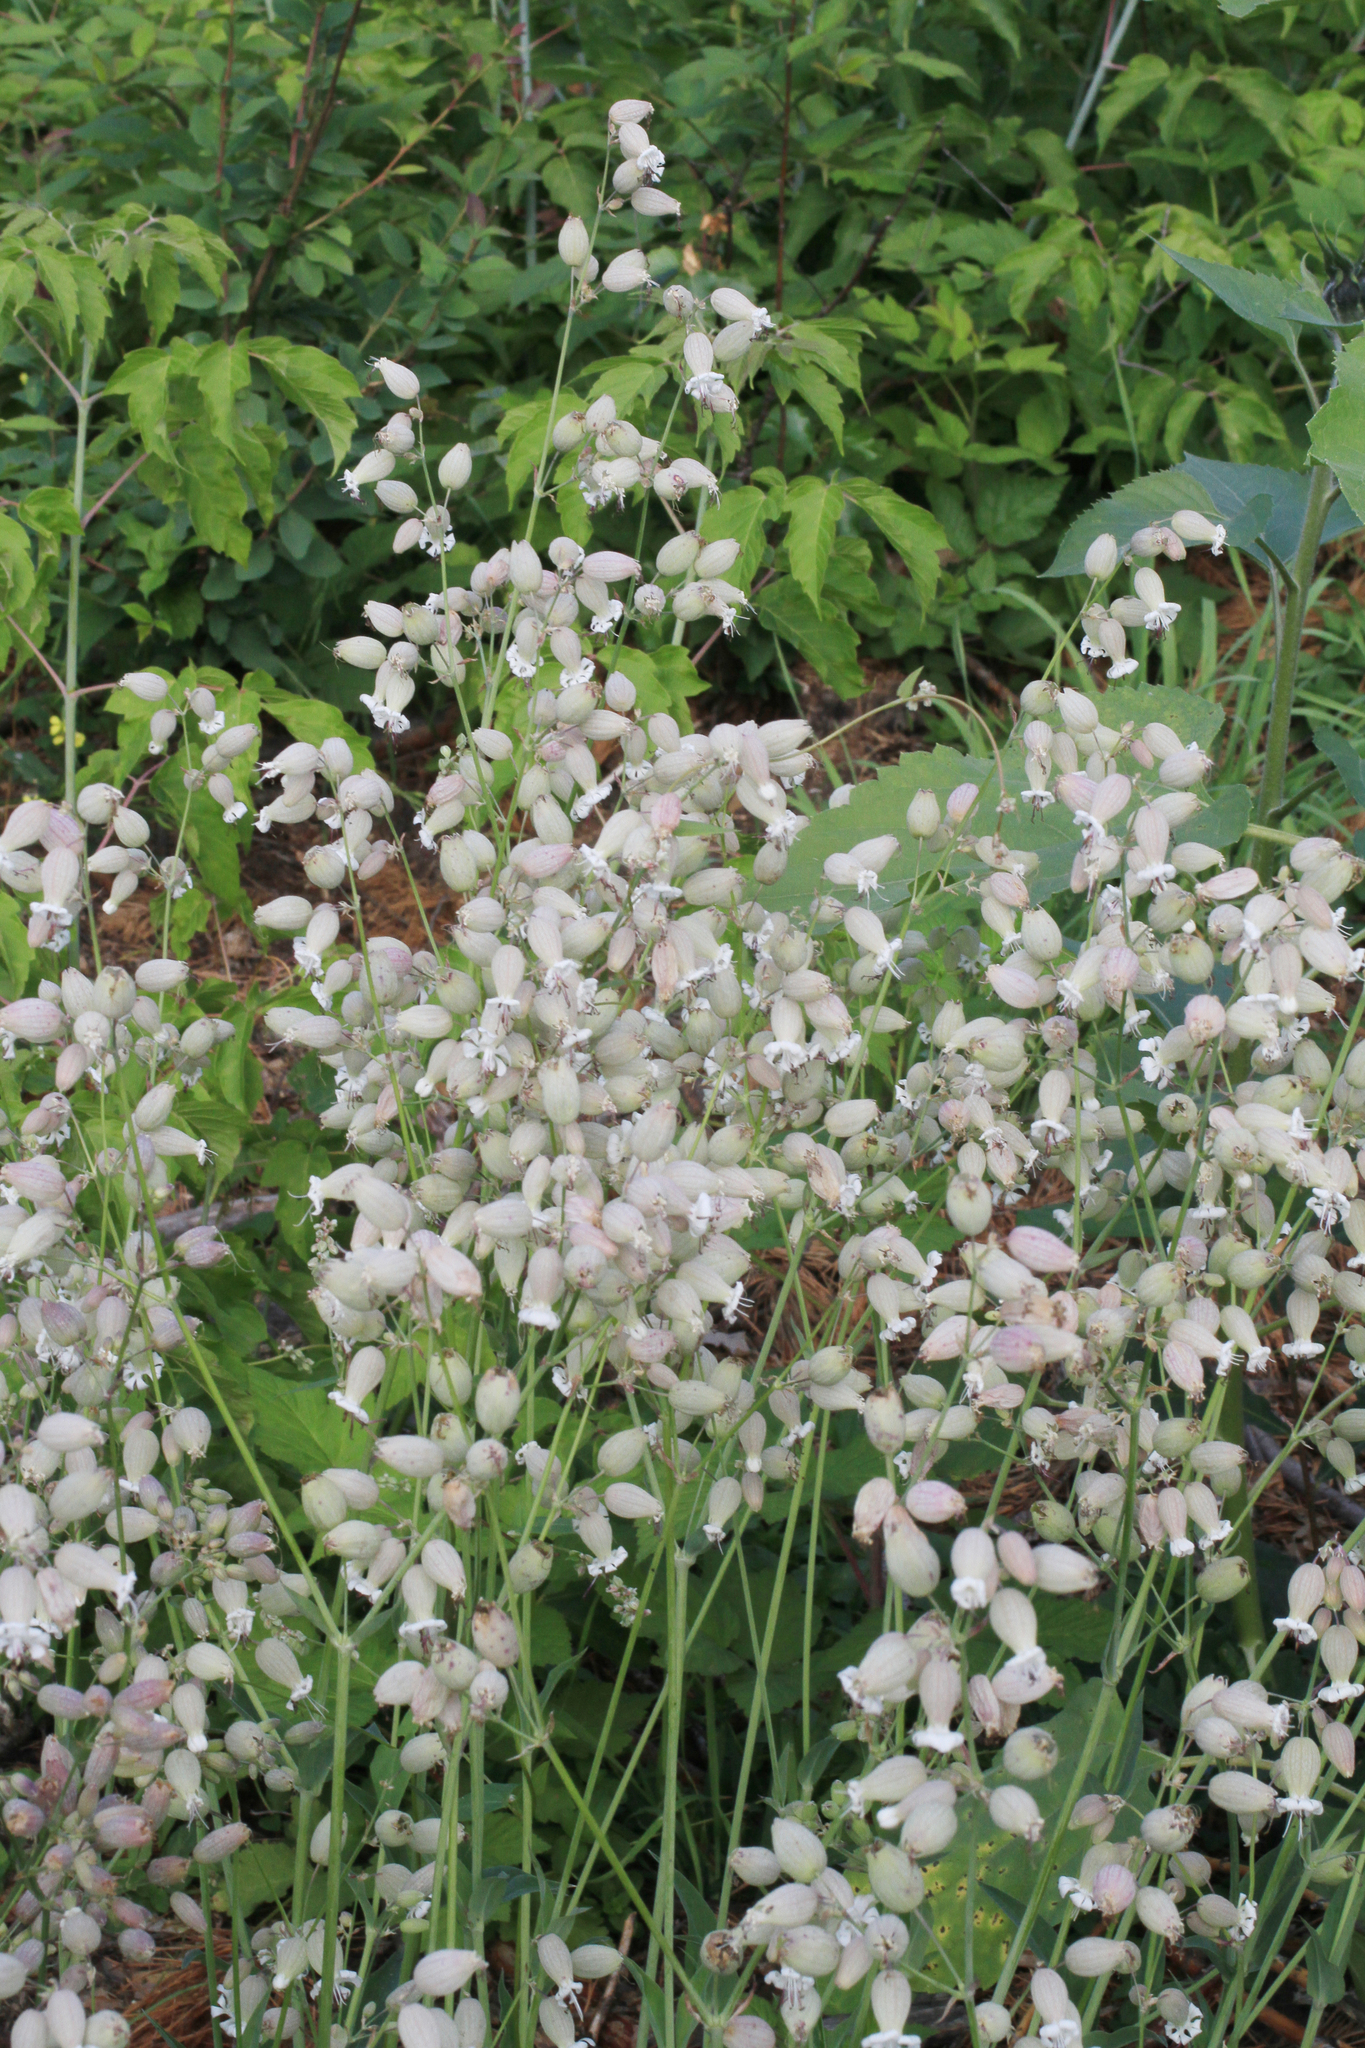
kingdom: Plantae
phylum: Tracheophyta
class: Magnoliopsida
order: Caryophyllales
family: Caryophyllaceae
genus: Silene
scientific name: Silene vulgaris
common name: Bladder campion
